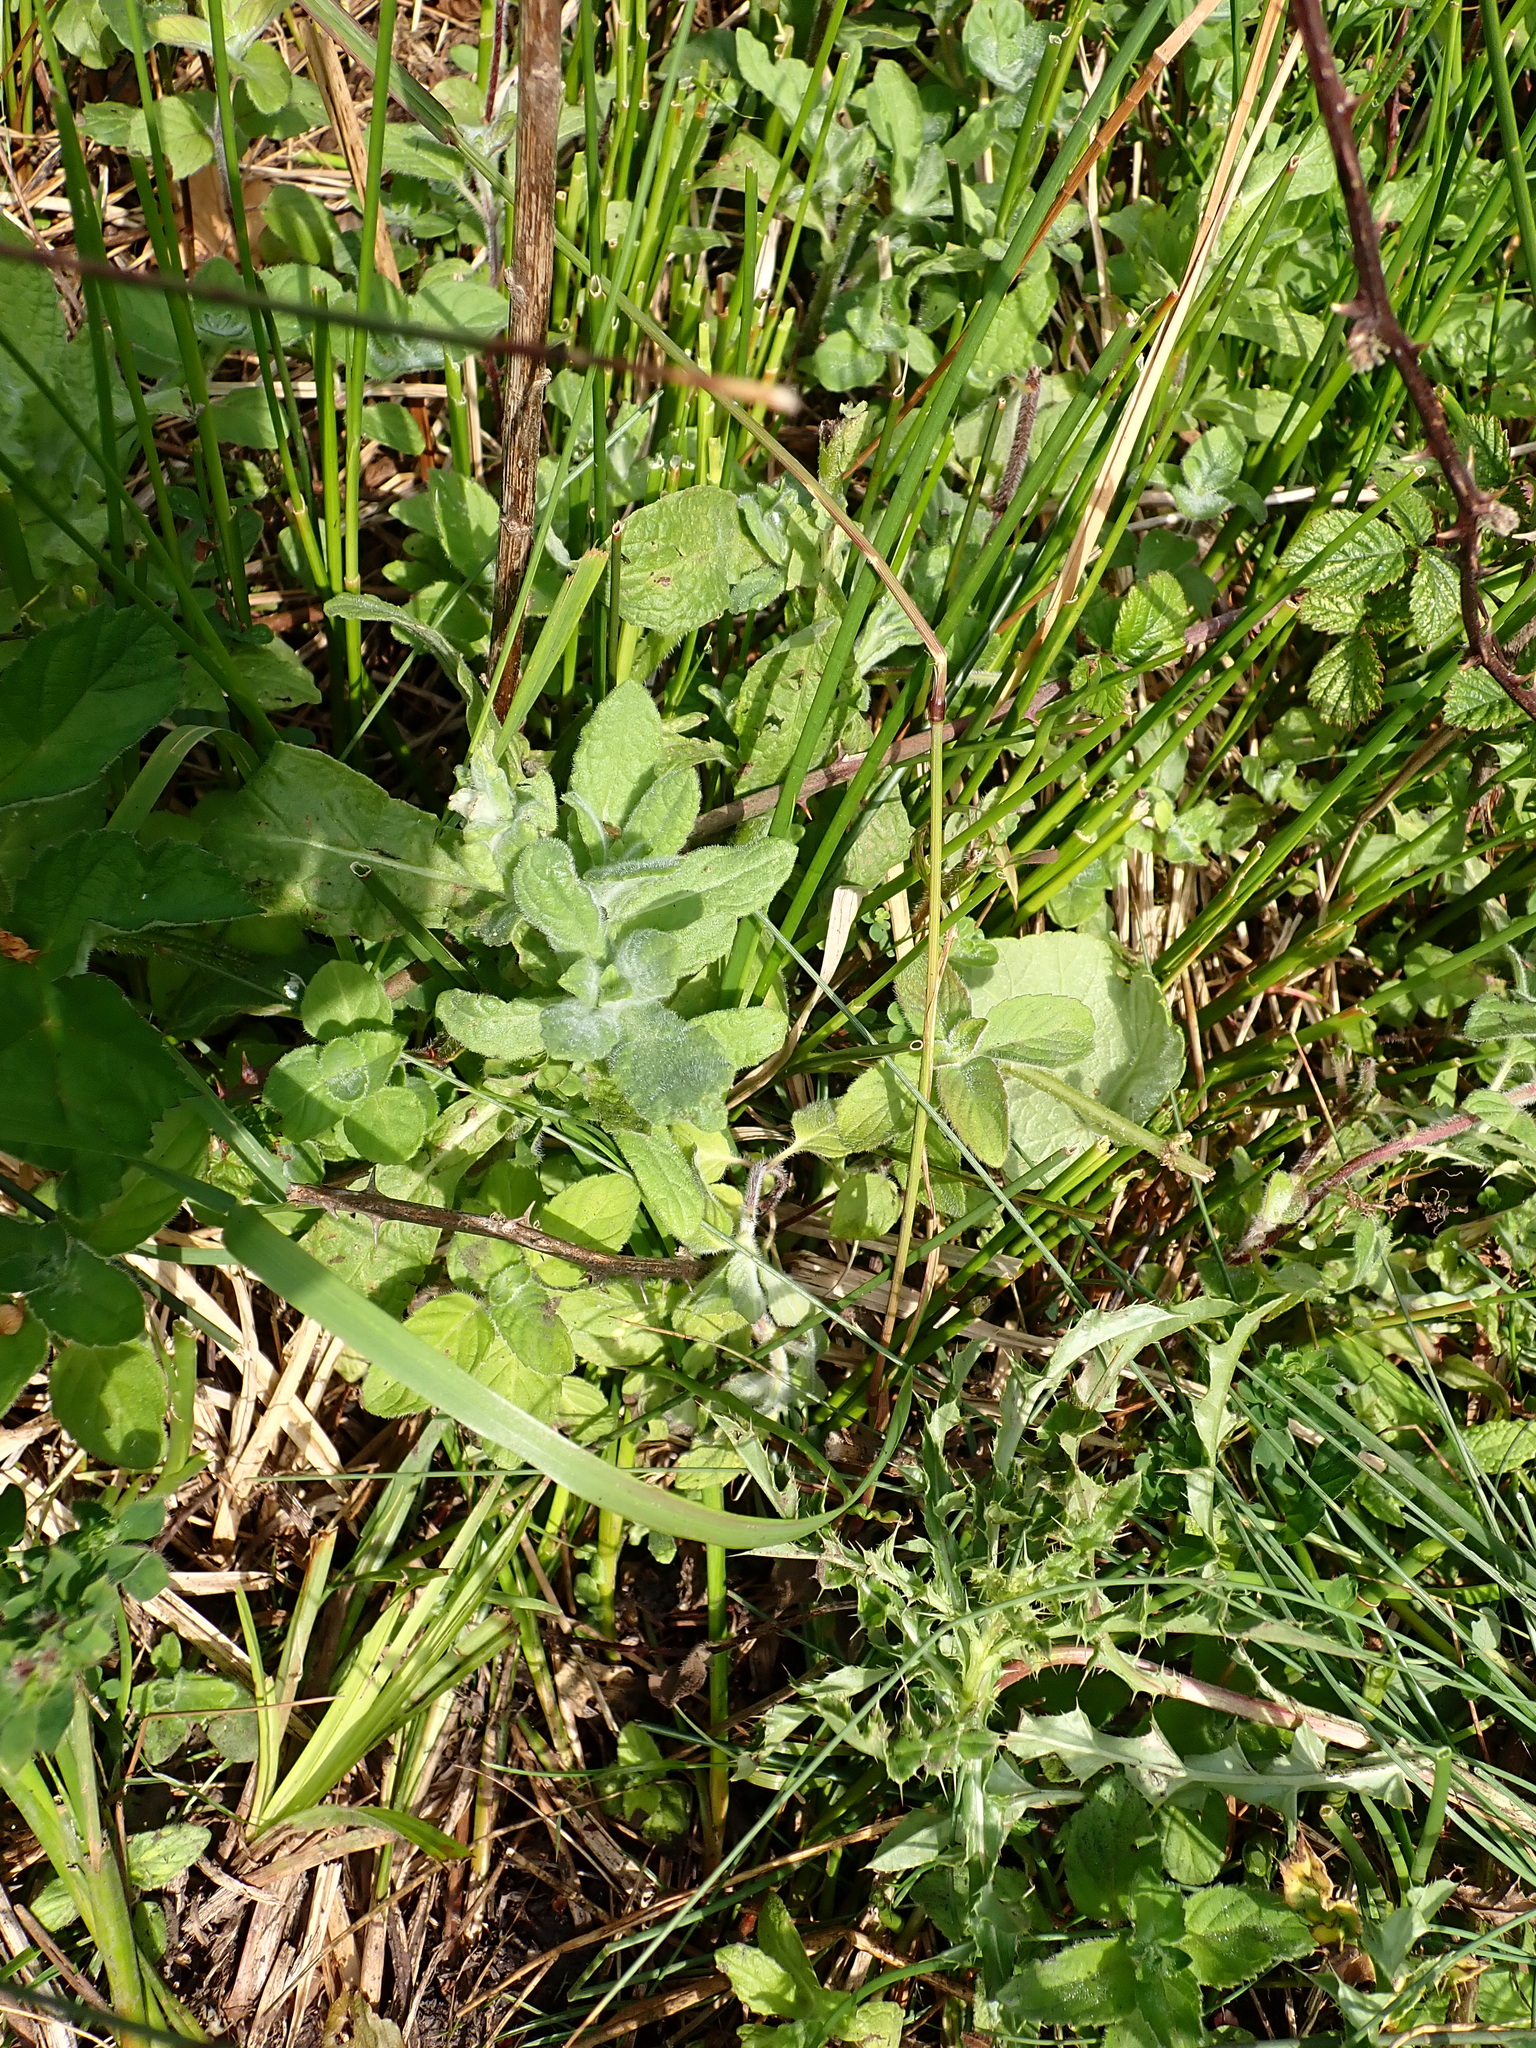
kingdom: Plantae
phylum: Tracheophyta
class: Magnoliopsida
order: Asterales
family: Asteraceae
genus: Pulicaria
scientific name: Pulicaria dysenterica
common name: Common fleabane
